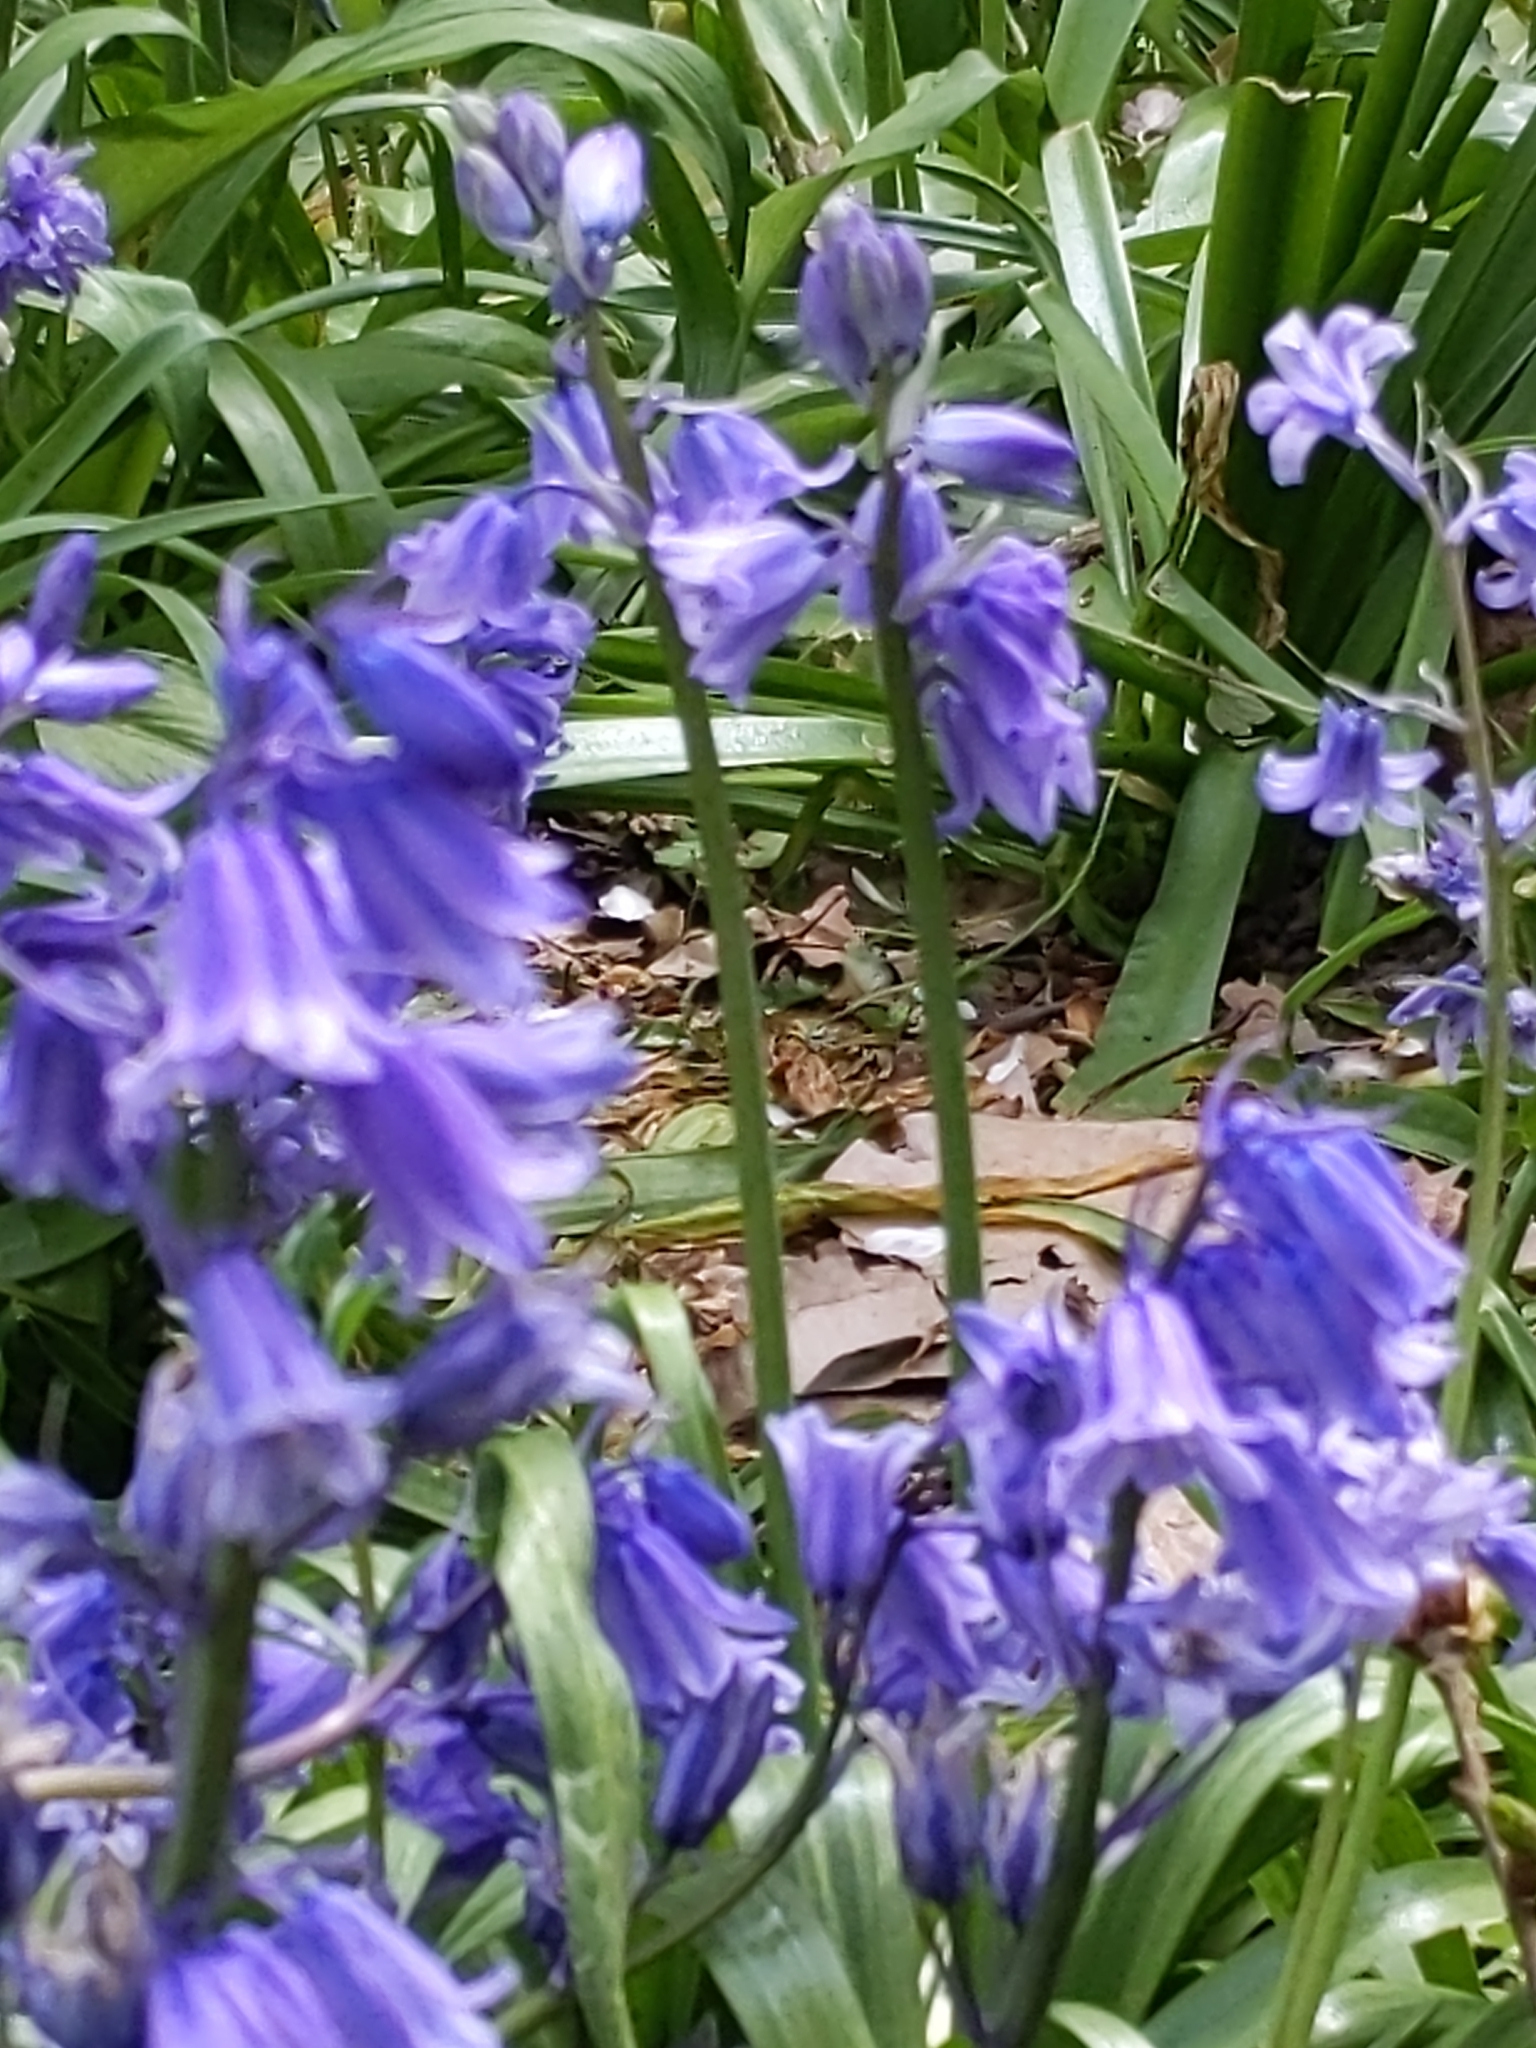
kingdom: Plantae
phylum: Tracheophyta
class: Liliopsida
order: Asparagales
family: Asparagaceae
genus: Hyacinthoides
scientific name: Hyacinthoides massartiana
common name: Hyacinthoides
